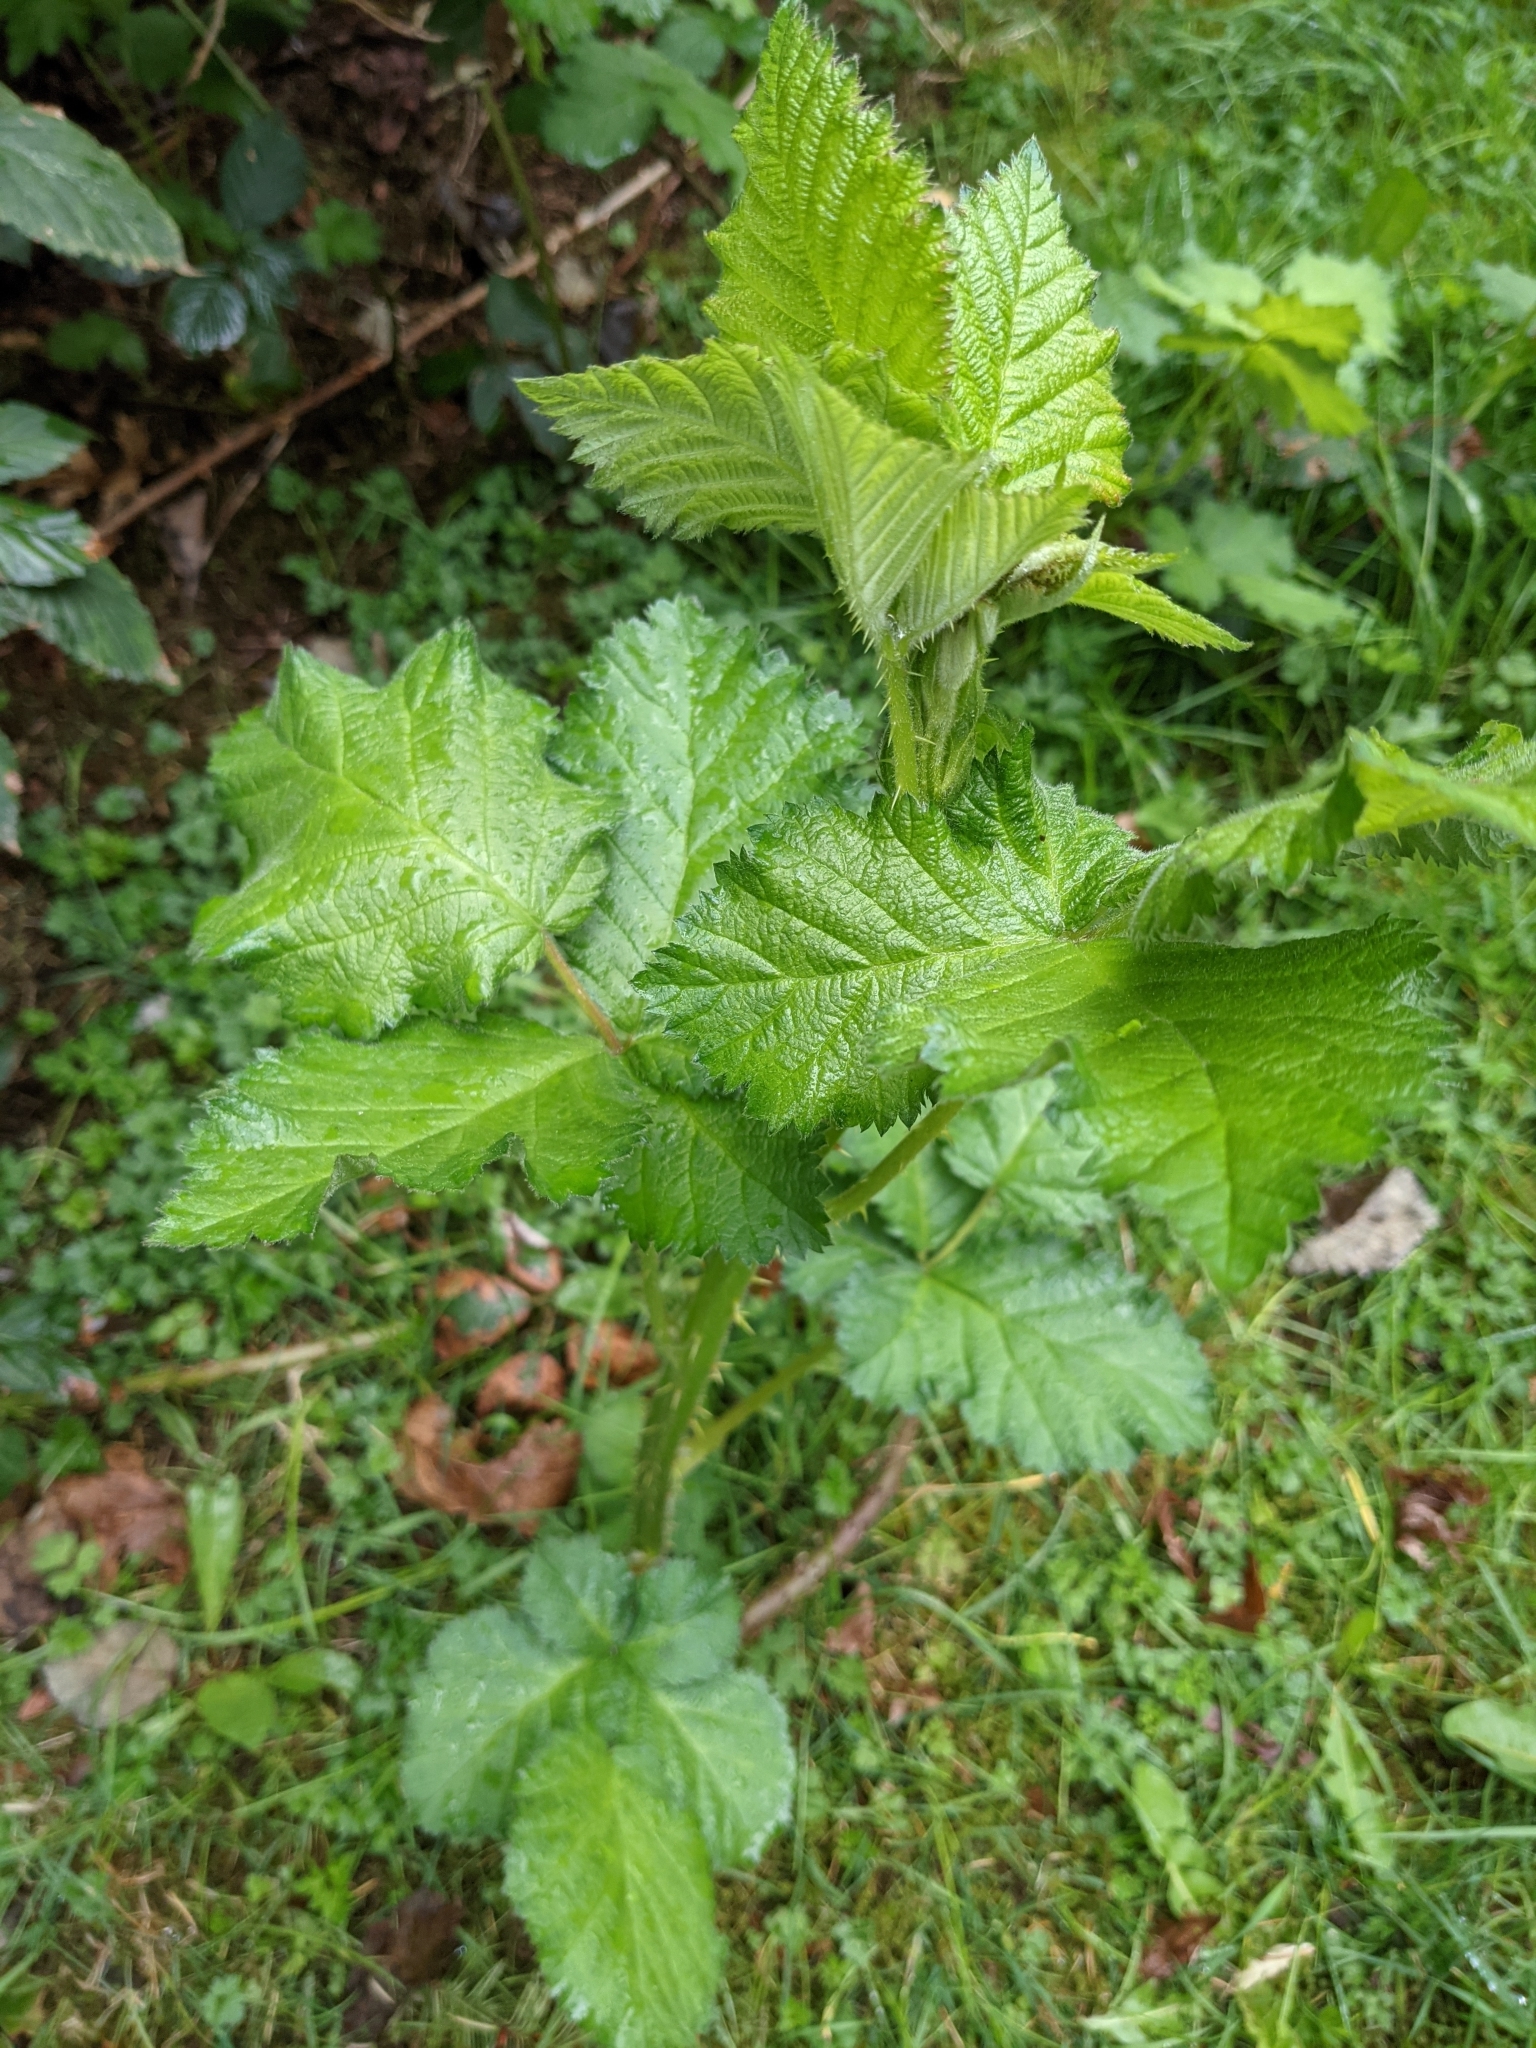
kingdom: Plantae
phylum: Tracheophyta
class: Magnoliopsida
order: Rosales
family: Rosaceae
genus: Rubus
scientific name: Rubus spectabilis
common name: Salmonberry
